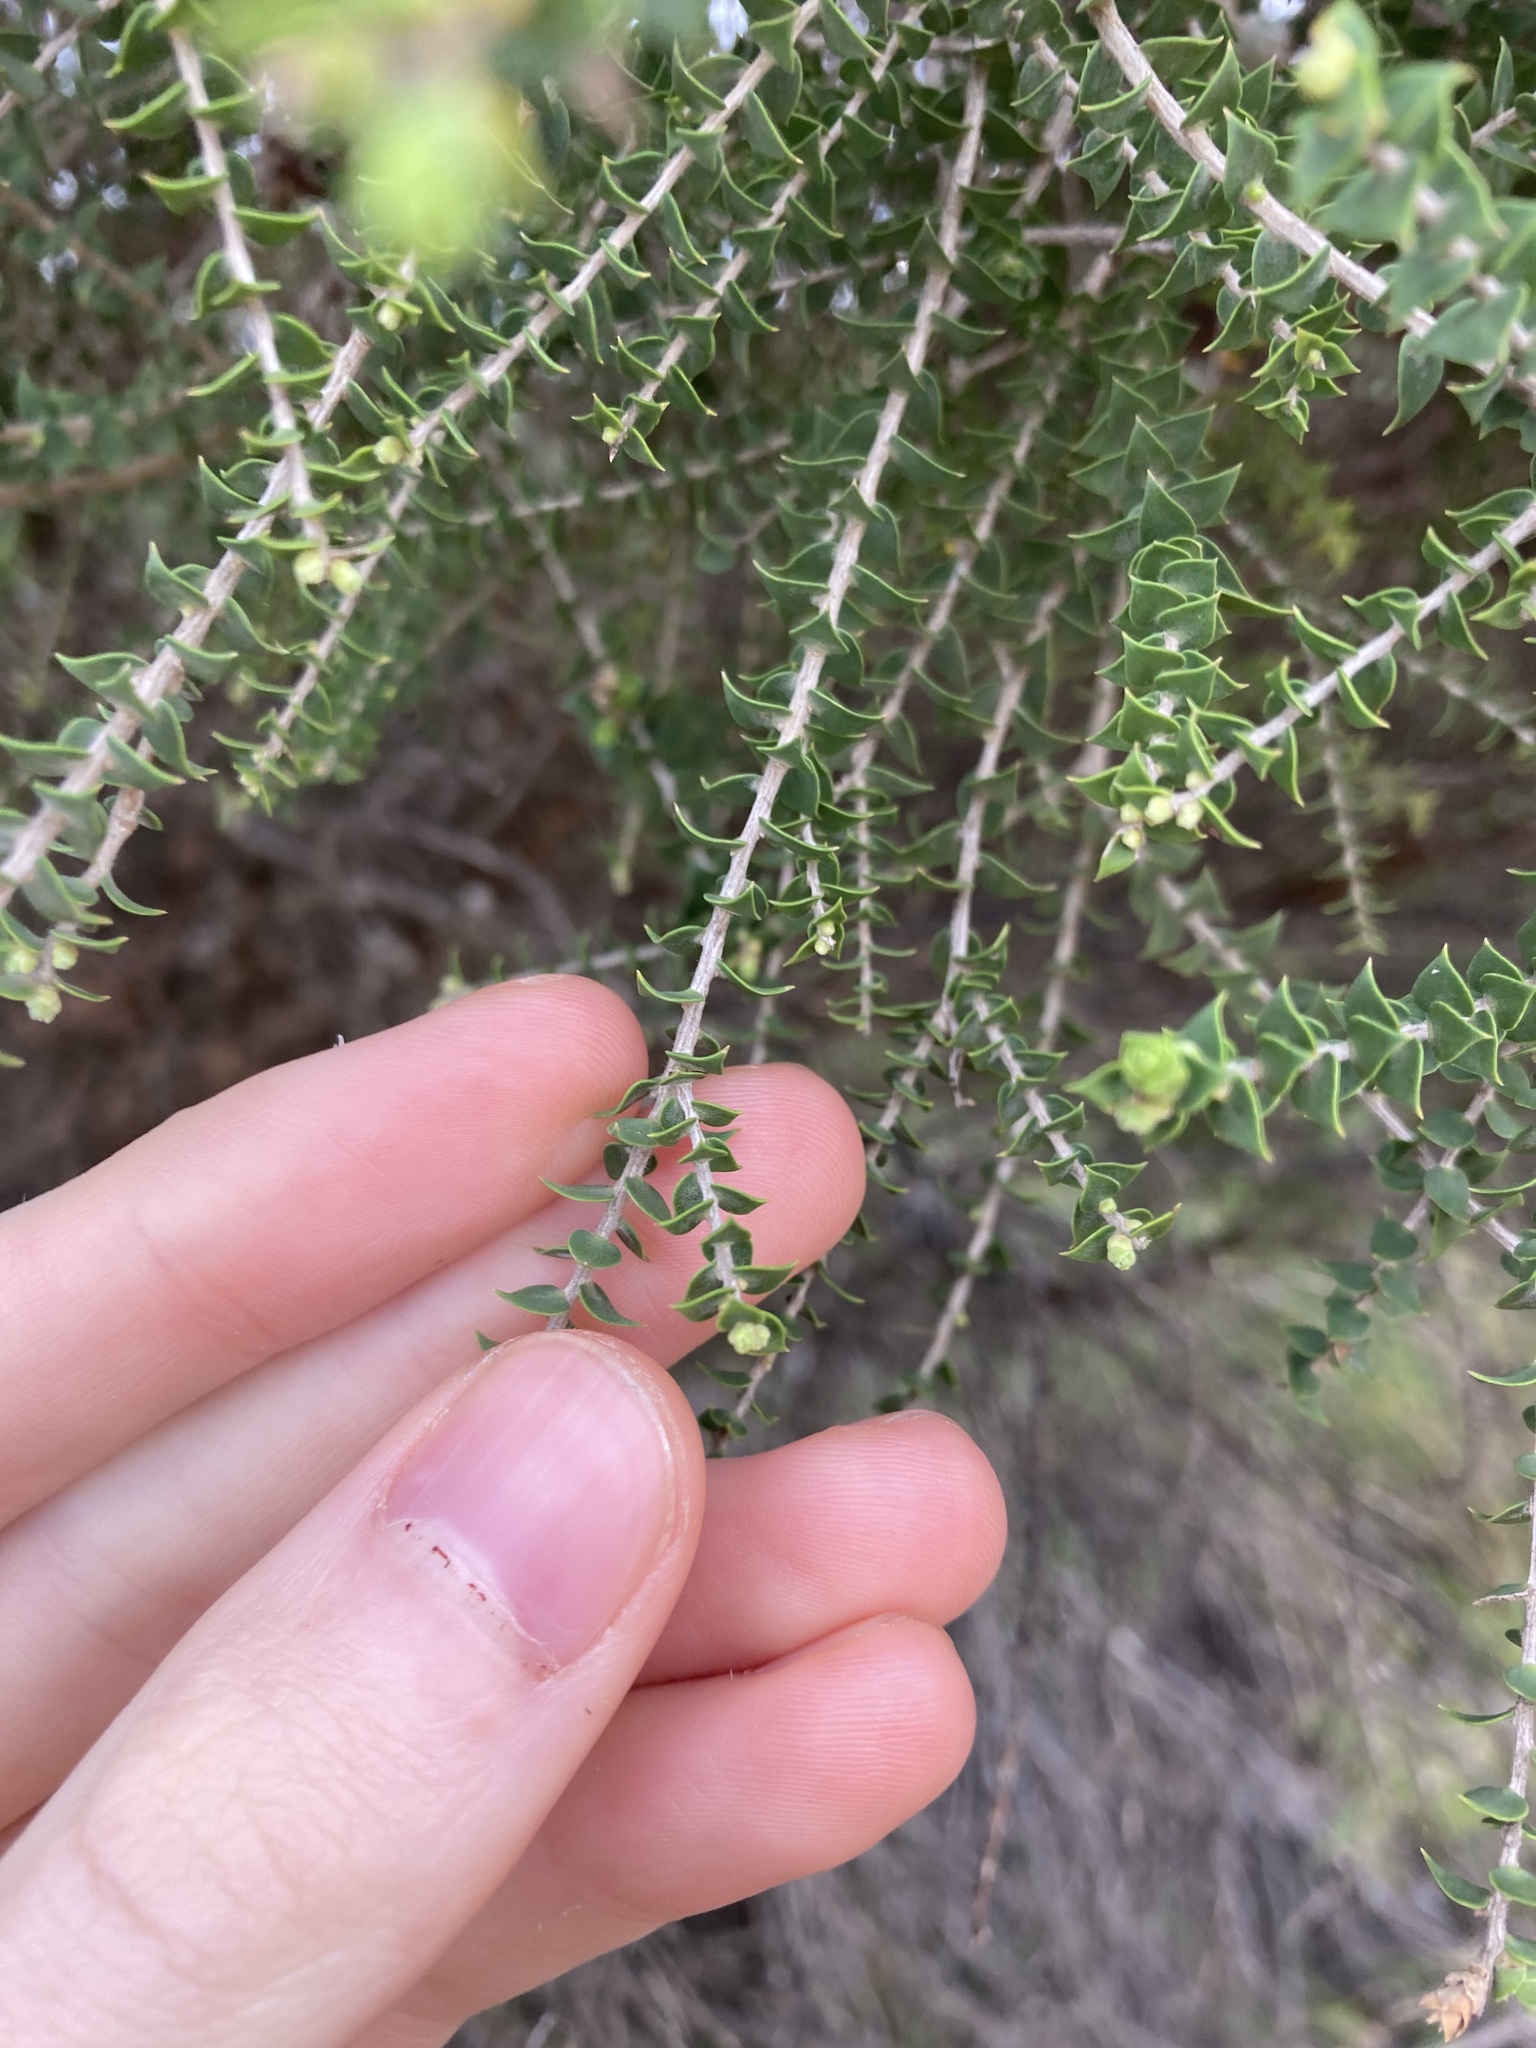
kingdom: Plantae
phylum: Tracheophyta
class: Magnoliopsida
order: Myrtales
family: Myrtaceae
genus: Melaleuca
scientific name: Melaleuca cardiophylla
